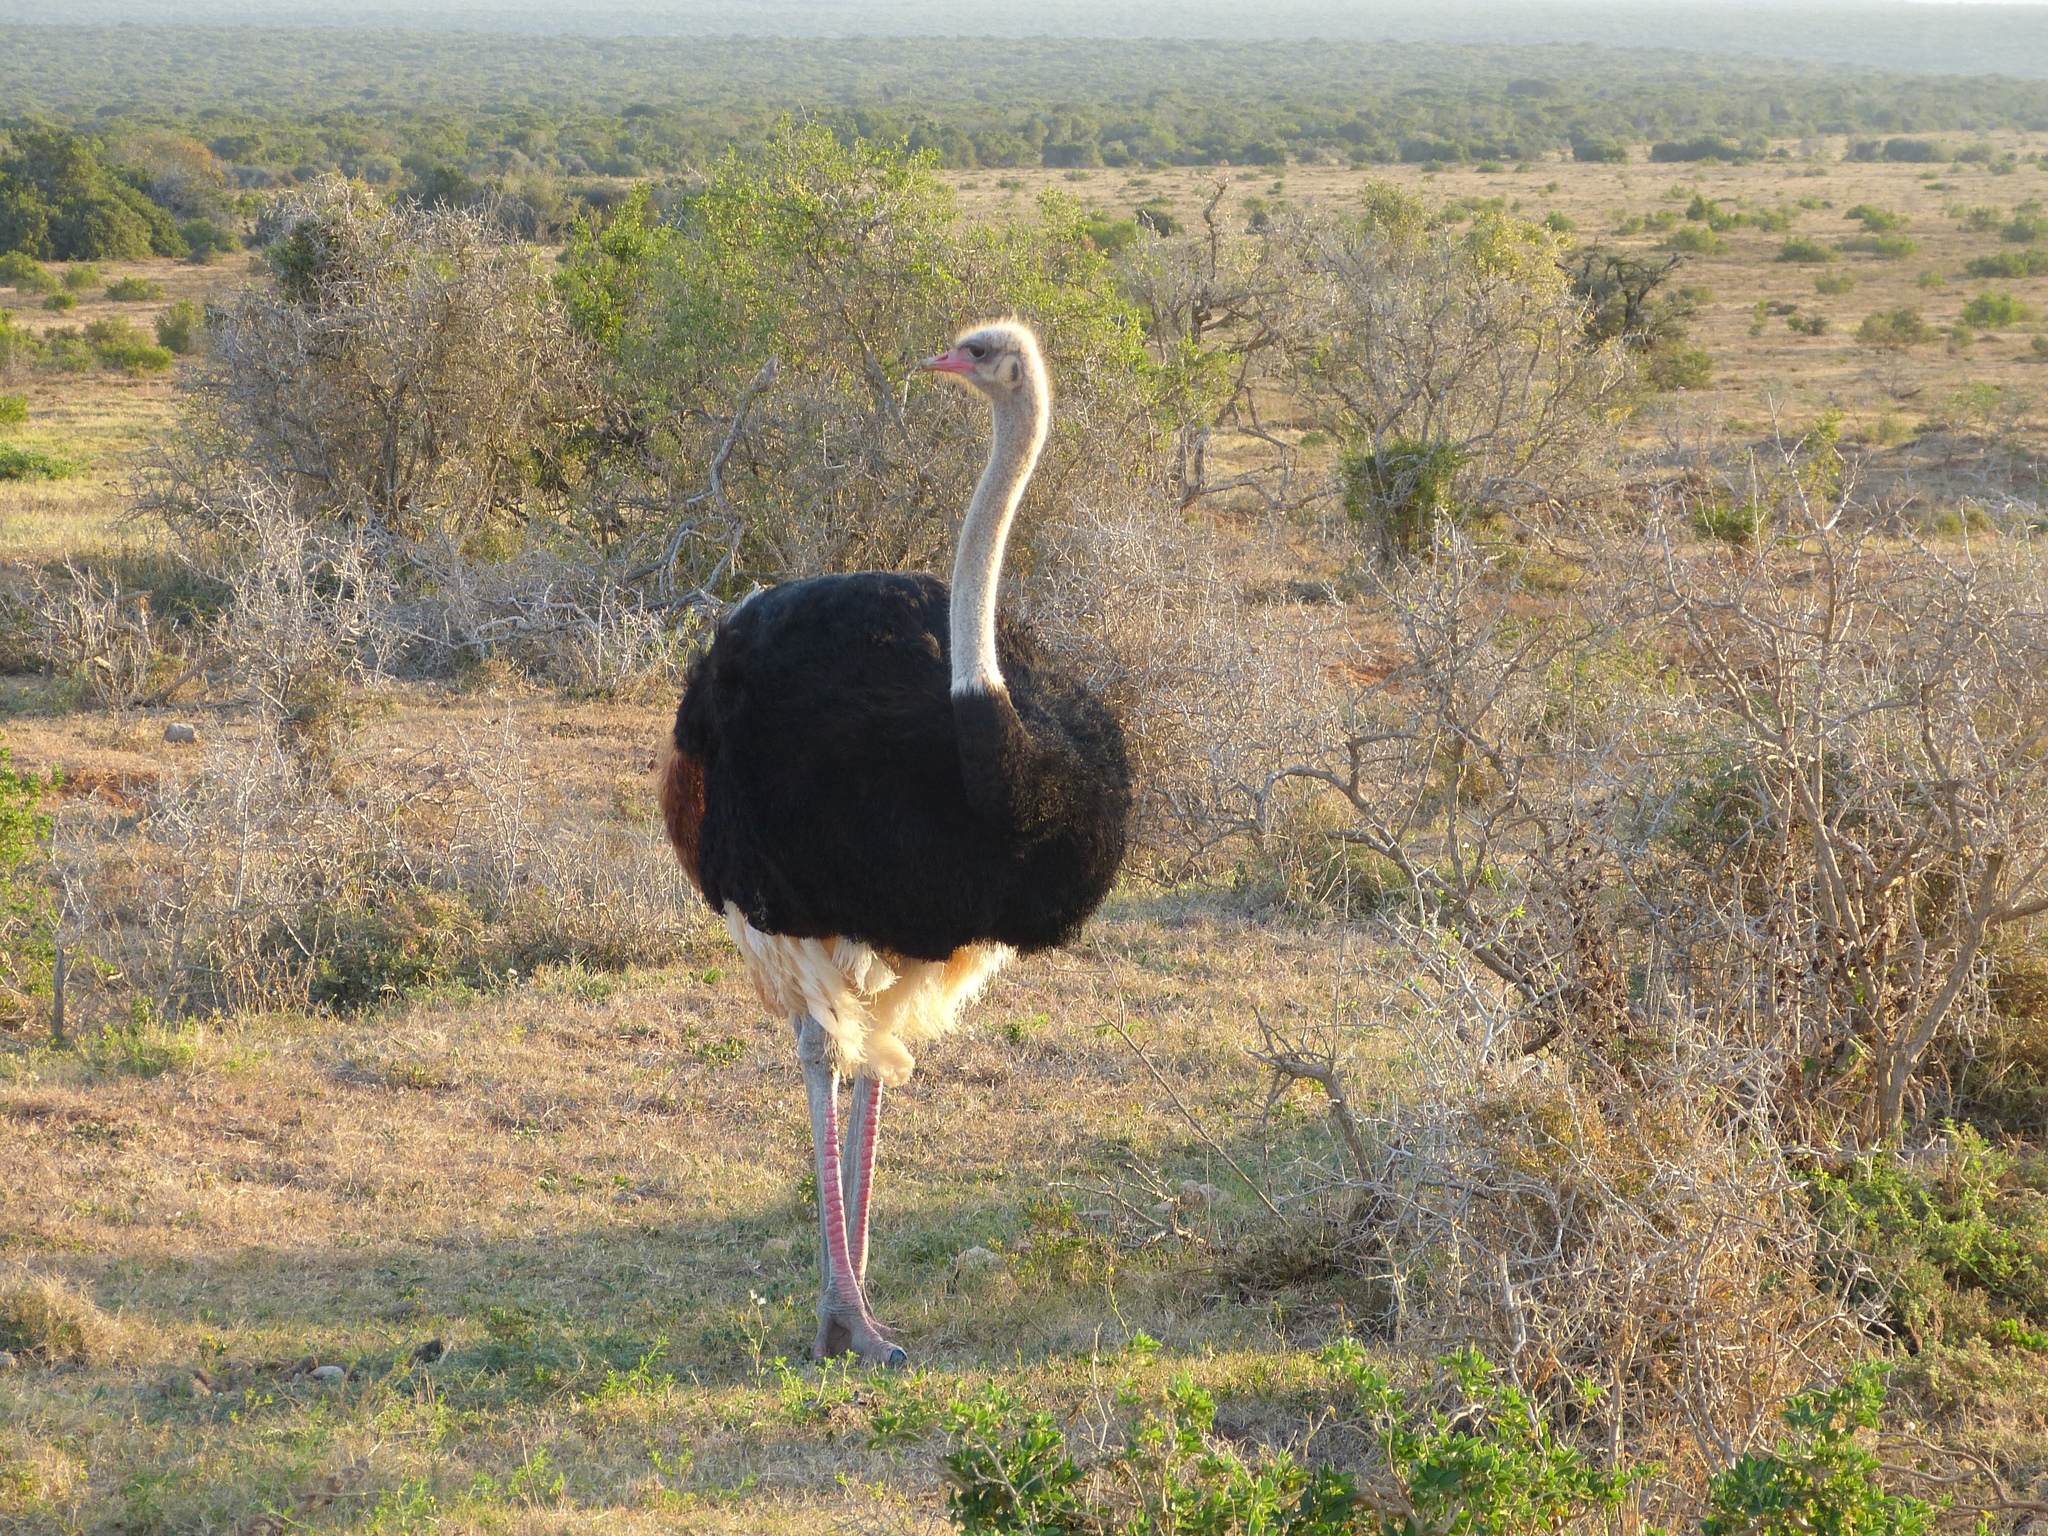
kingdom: Animalia
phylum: Chordata
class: Aves
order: Struthioniformes
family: Struthionidae
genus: Struthio
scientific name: Struthio camelus
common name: Common ostrich
